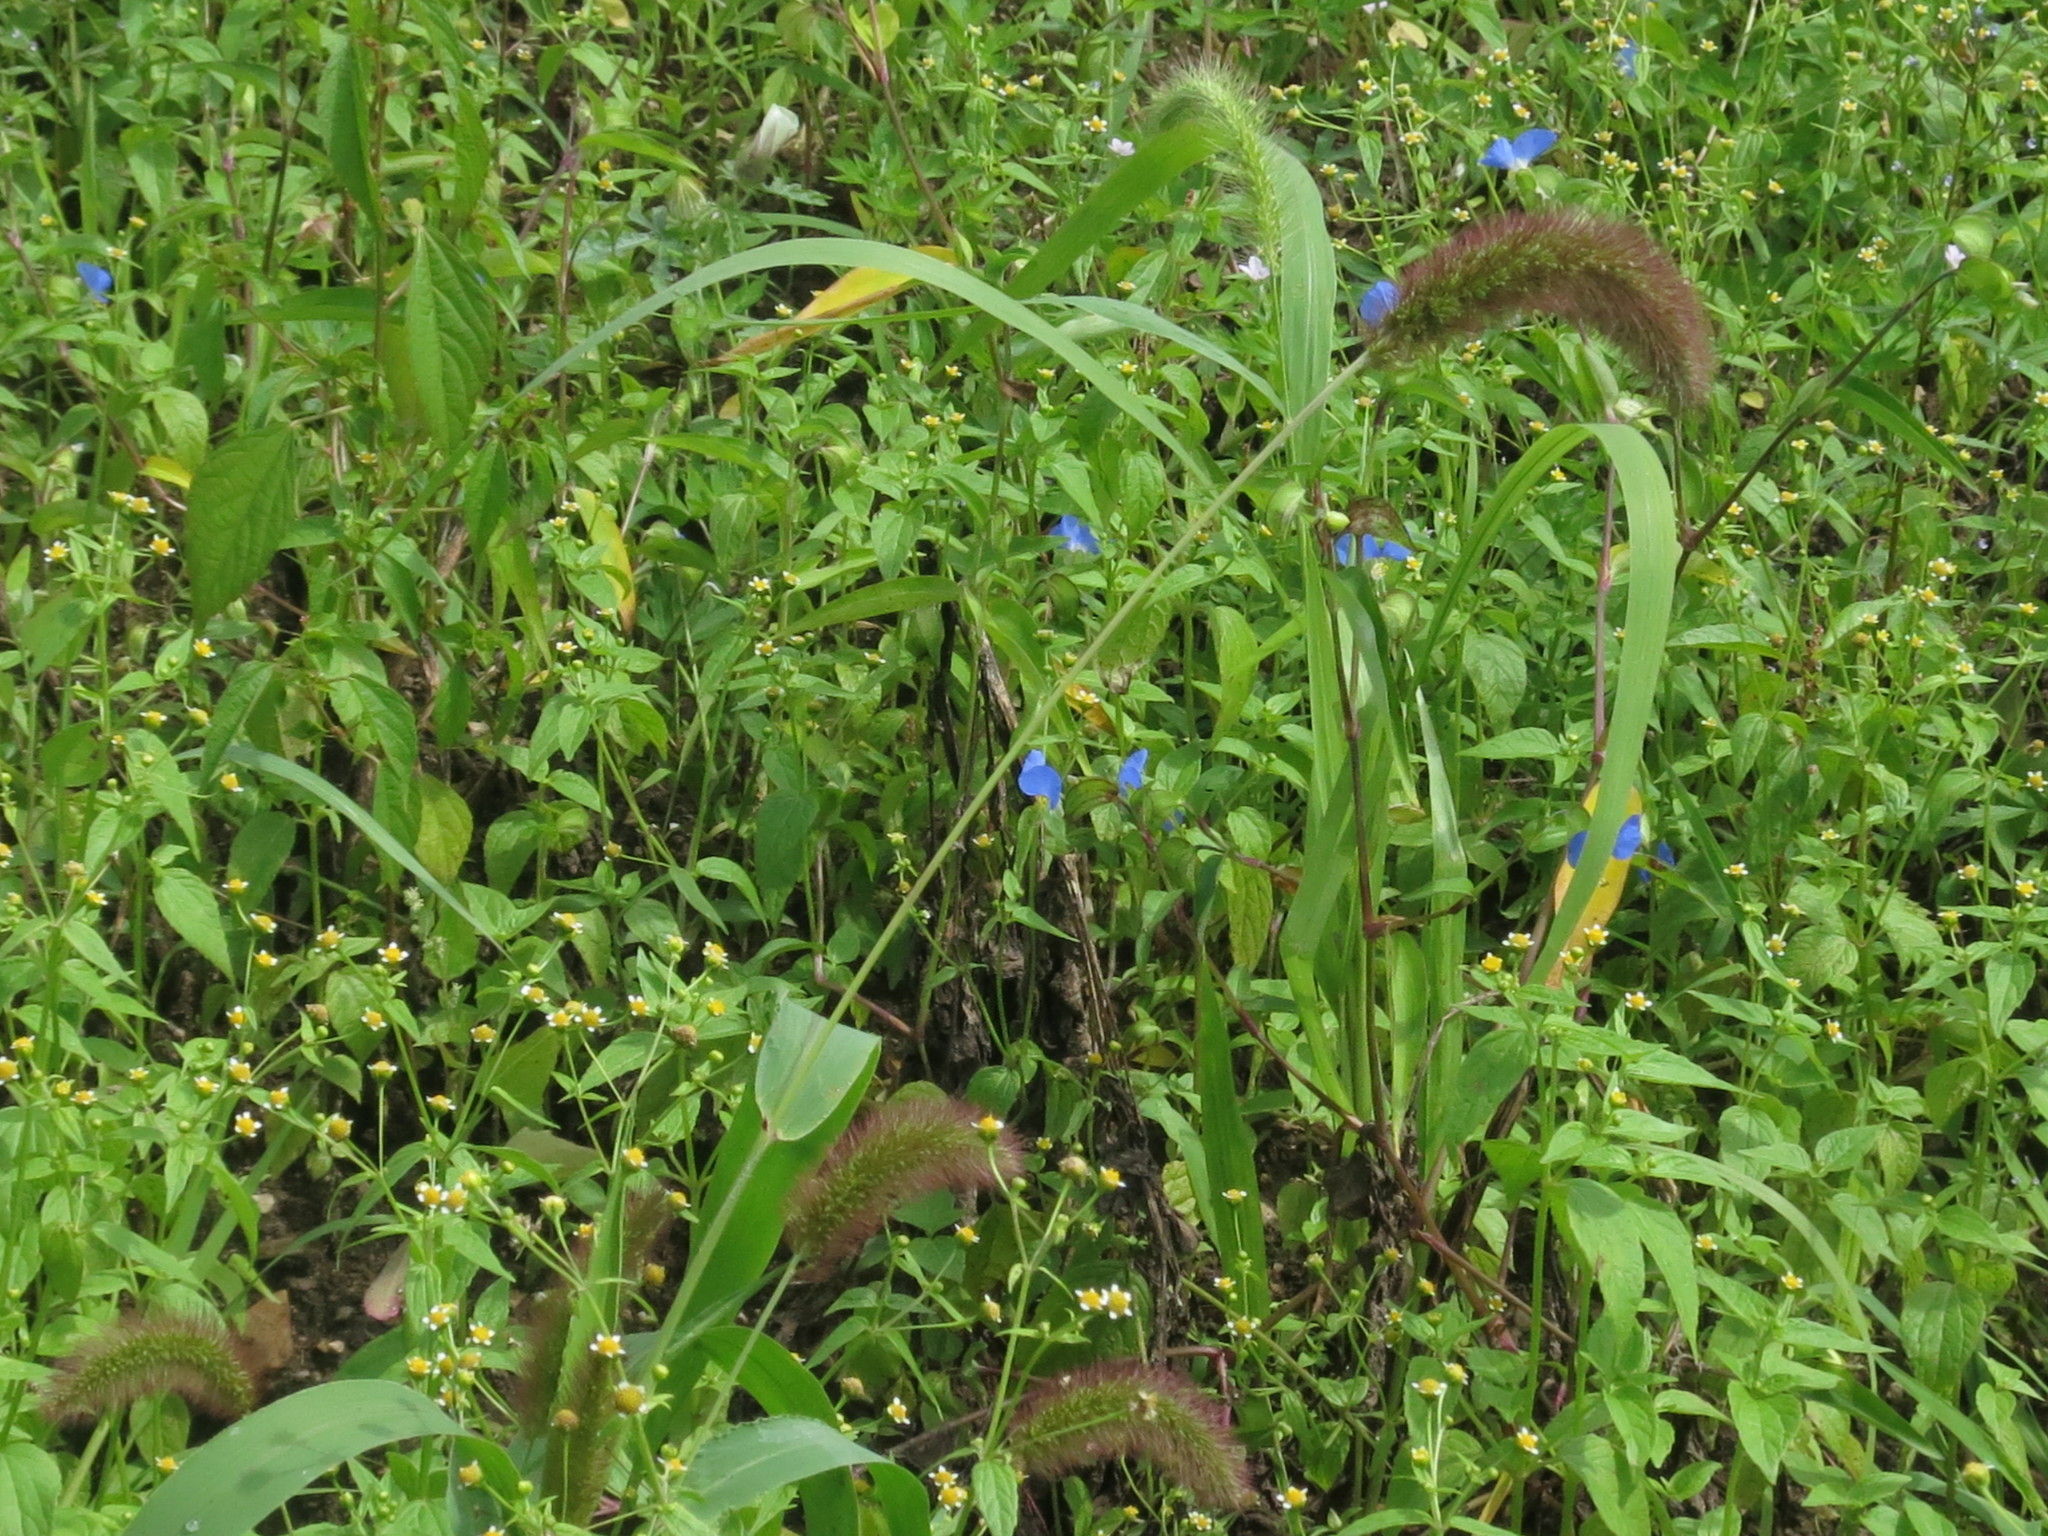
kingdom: Plantae
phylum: Tracheophyta
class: Liliopsida
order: Poales
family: Poaceae
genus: Setaria
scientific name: Setaria viridis
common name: Green bristlegrass
